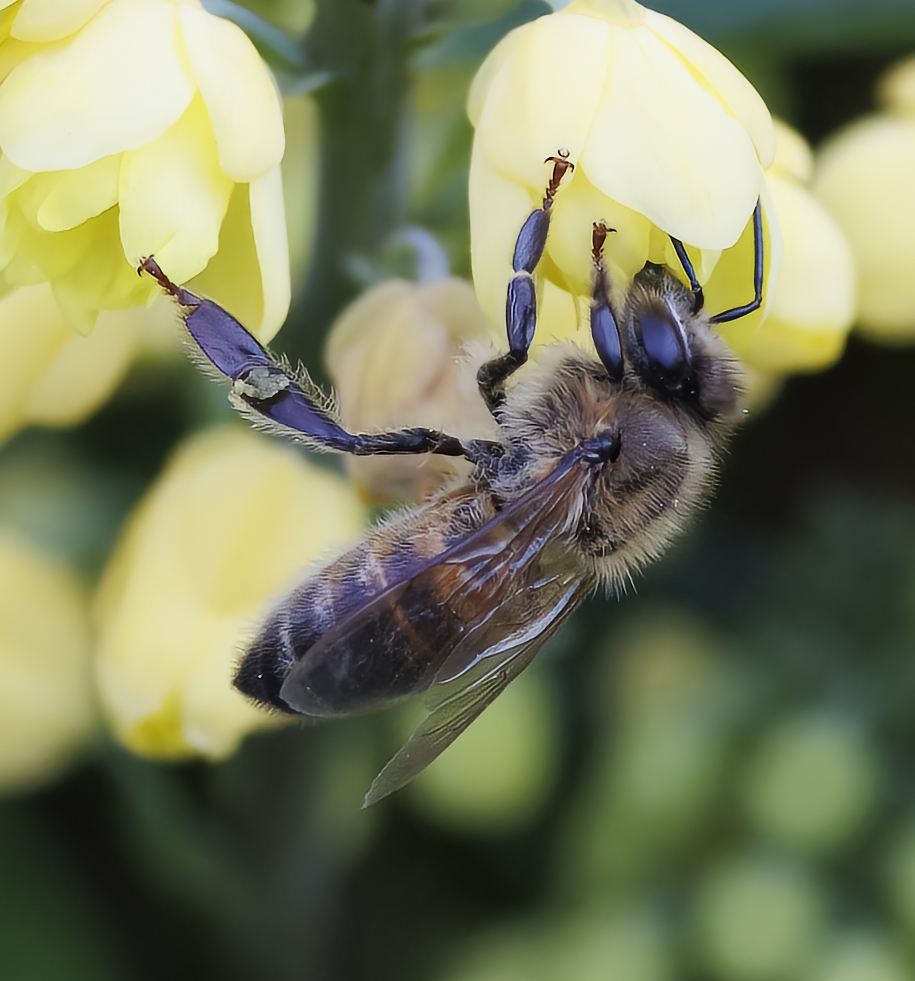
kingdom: Animalia
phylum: Arthropoda
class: Insecta
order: Hymenoptera
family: Apidae
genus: Apis
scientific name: Apis mellifera
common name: Honey bee
